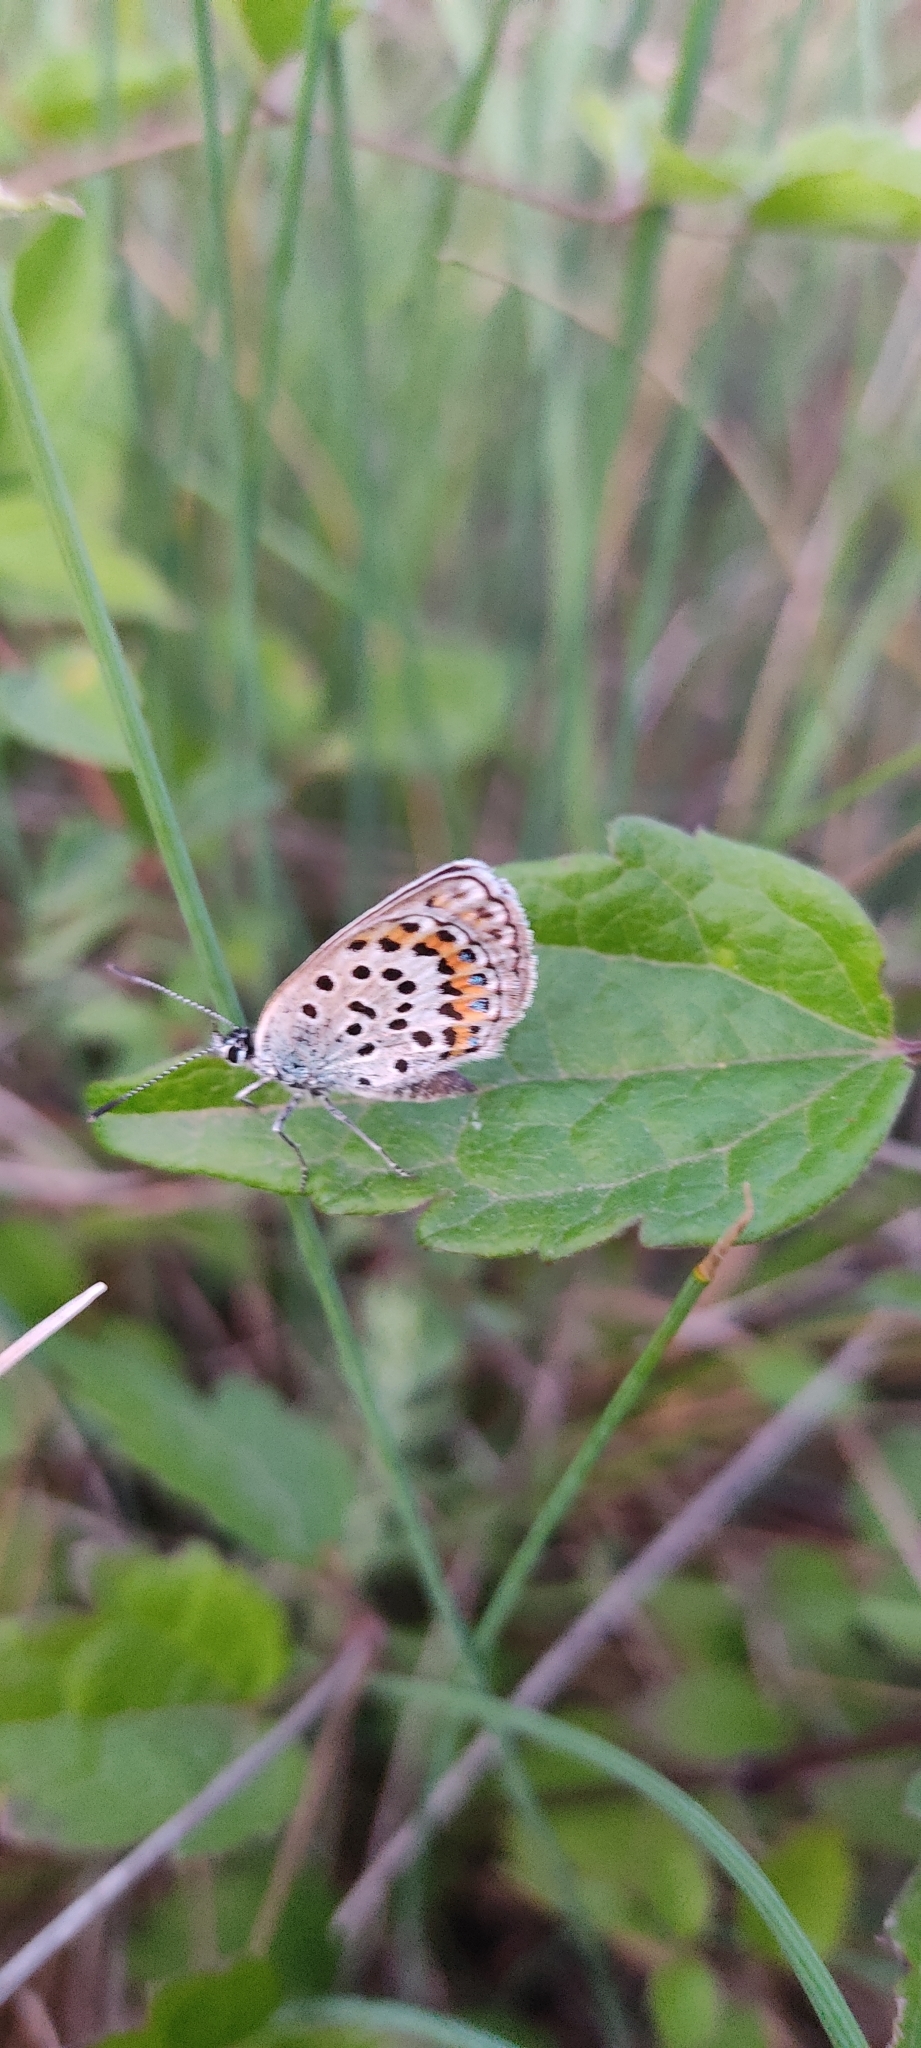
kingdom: Animalia
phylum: Arthropoda
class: Insecta
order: Lepidoptera
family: Lycaenidae
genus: Plebejus
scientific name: Plebejus argus
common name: Silver-studded blue
